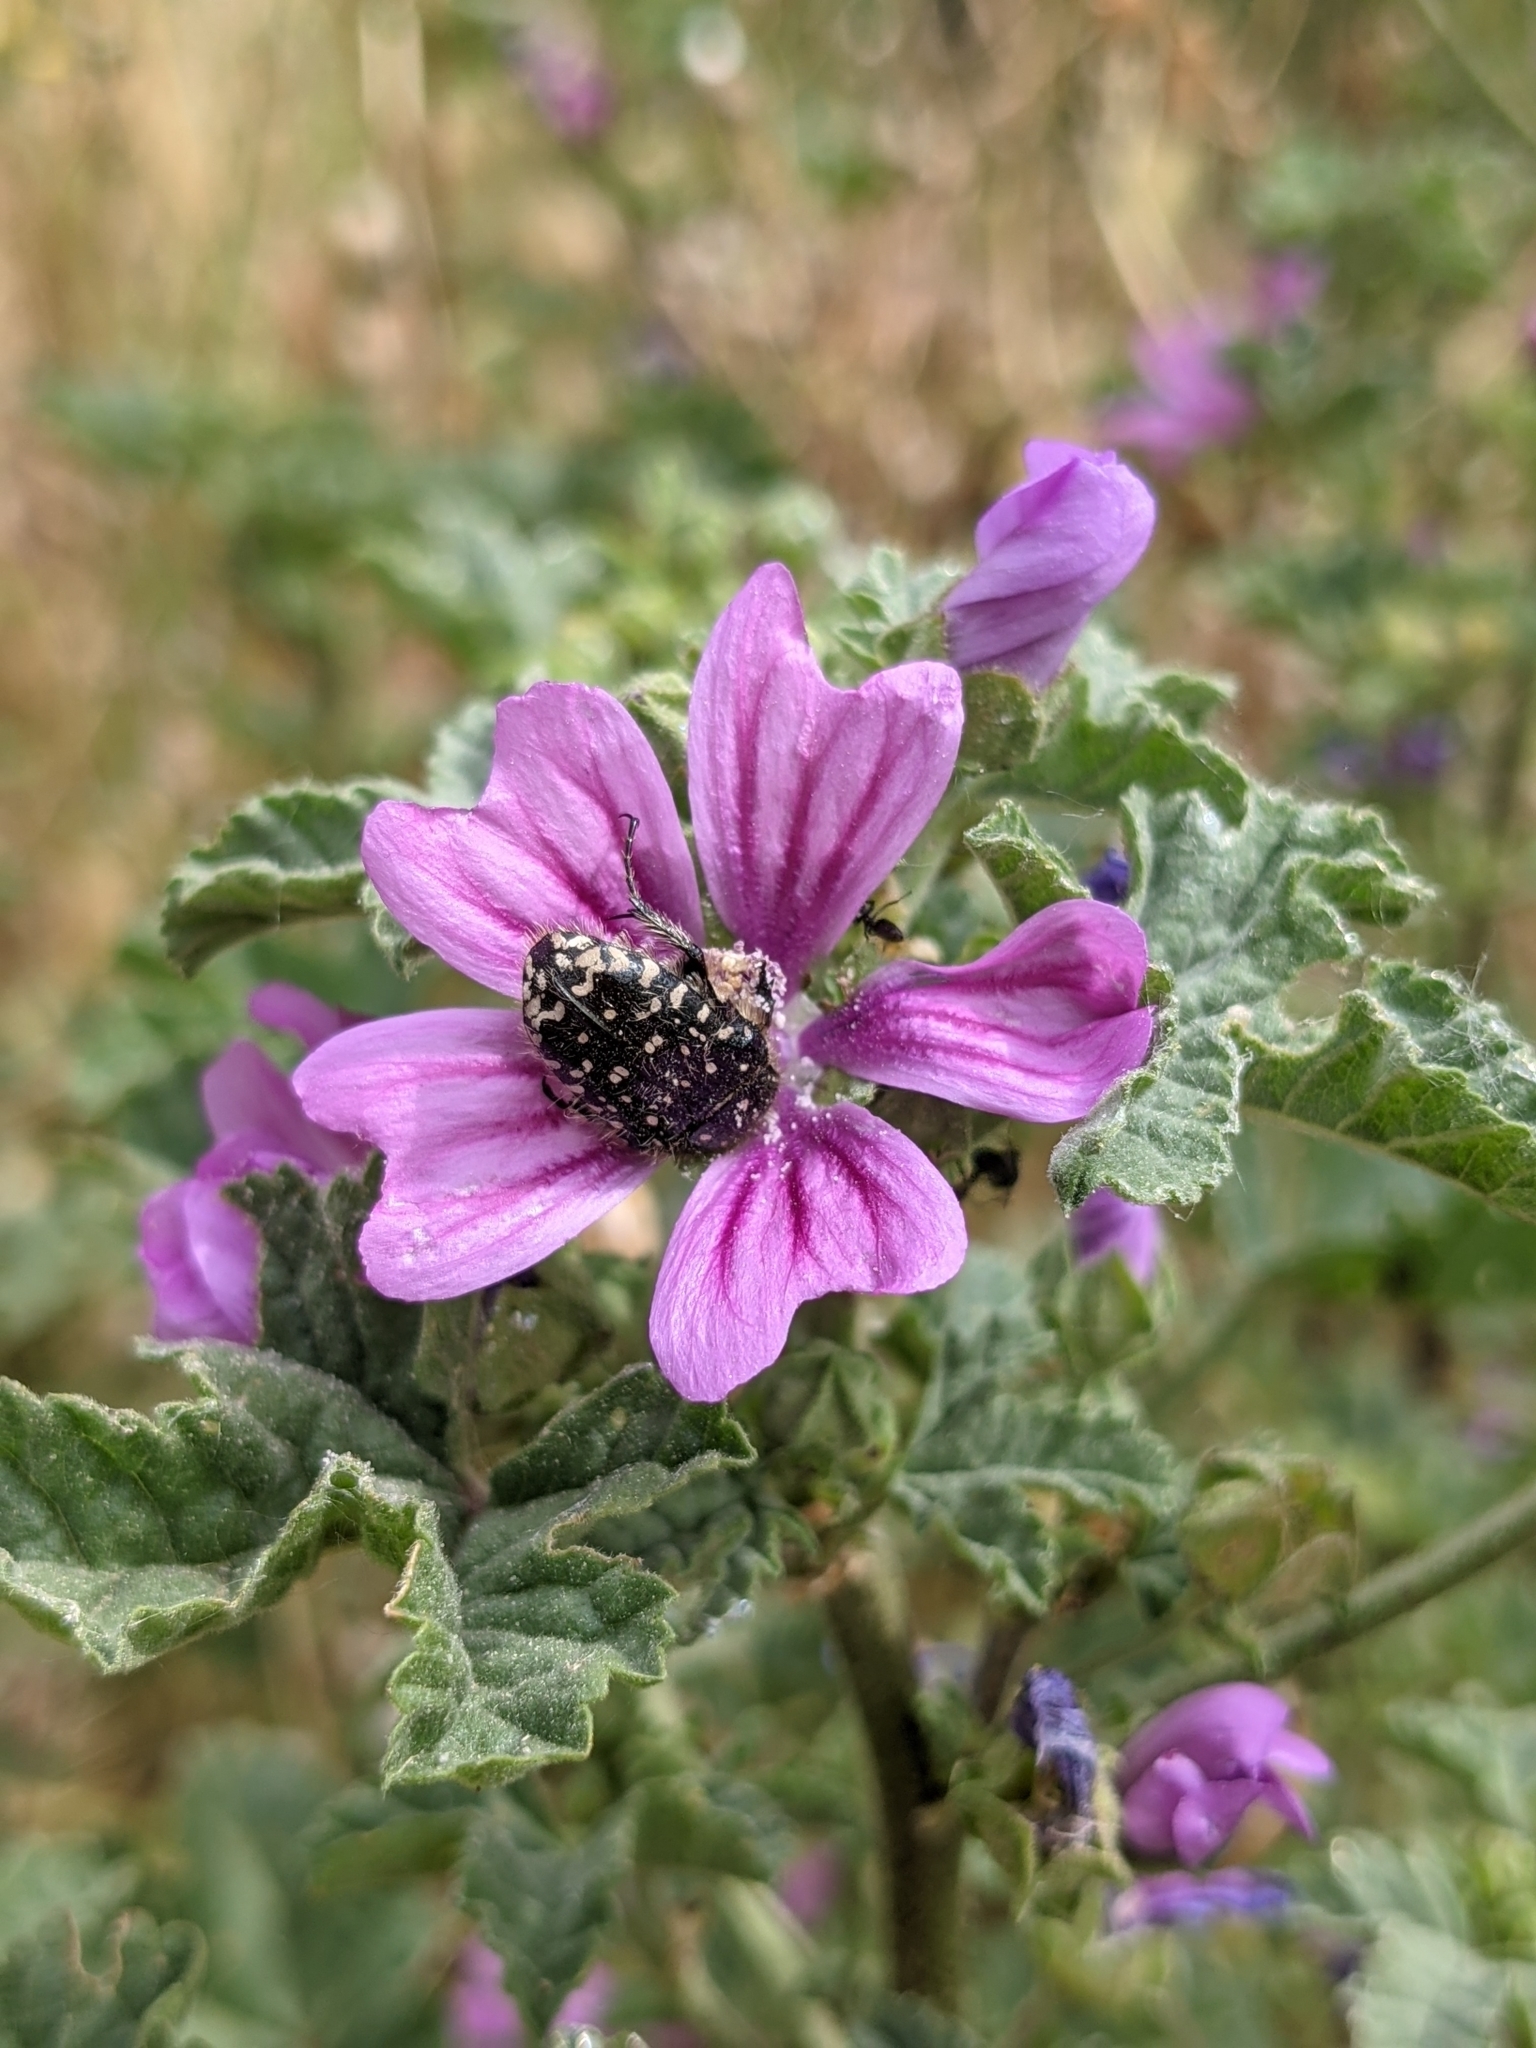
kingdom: Animalia
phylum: Arthropoda
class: Insecta
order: Coleoptera
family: Scarabaeidae
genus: Oxythyrea
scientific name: Oxythyrea funesta
